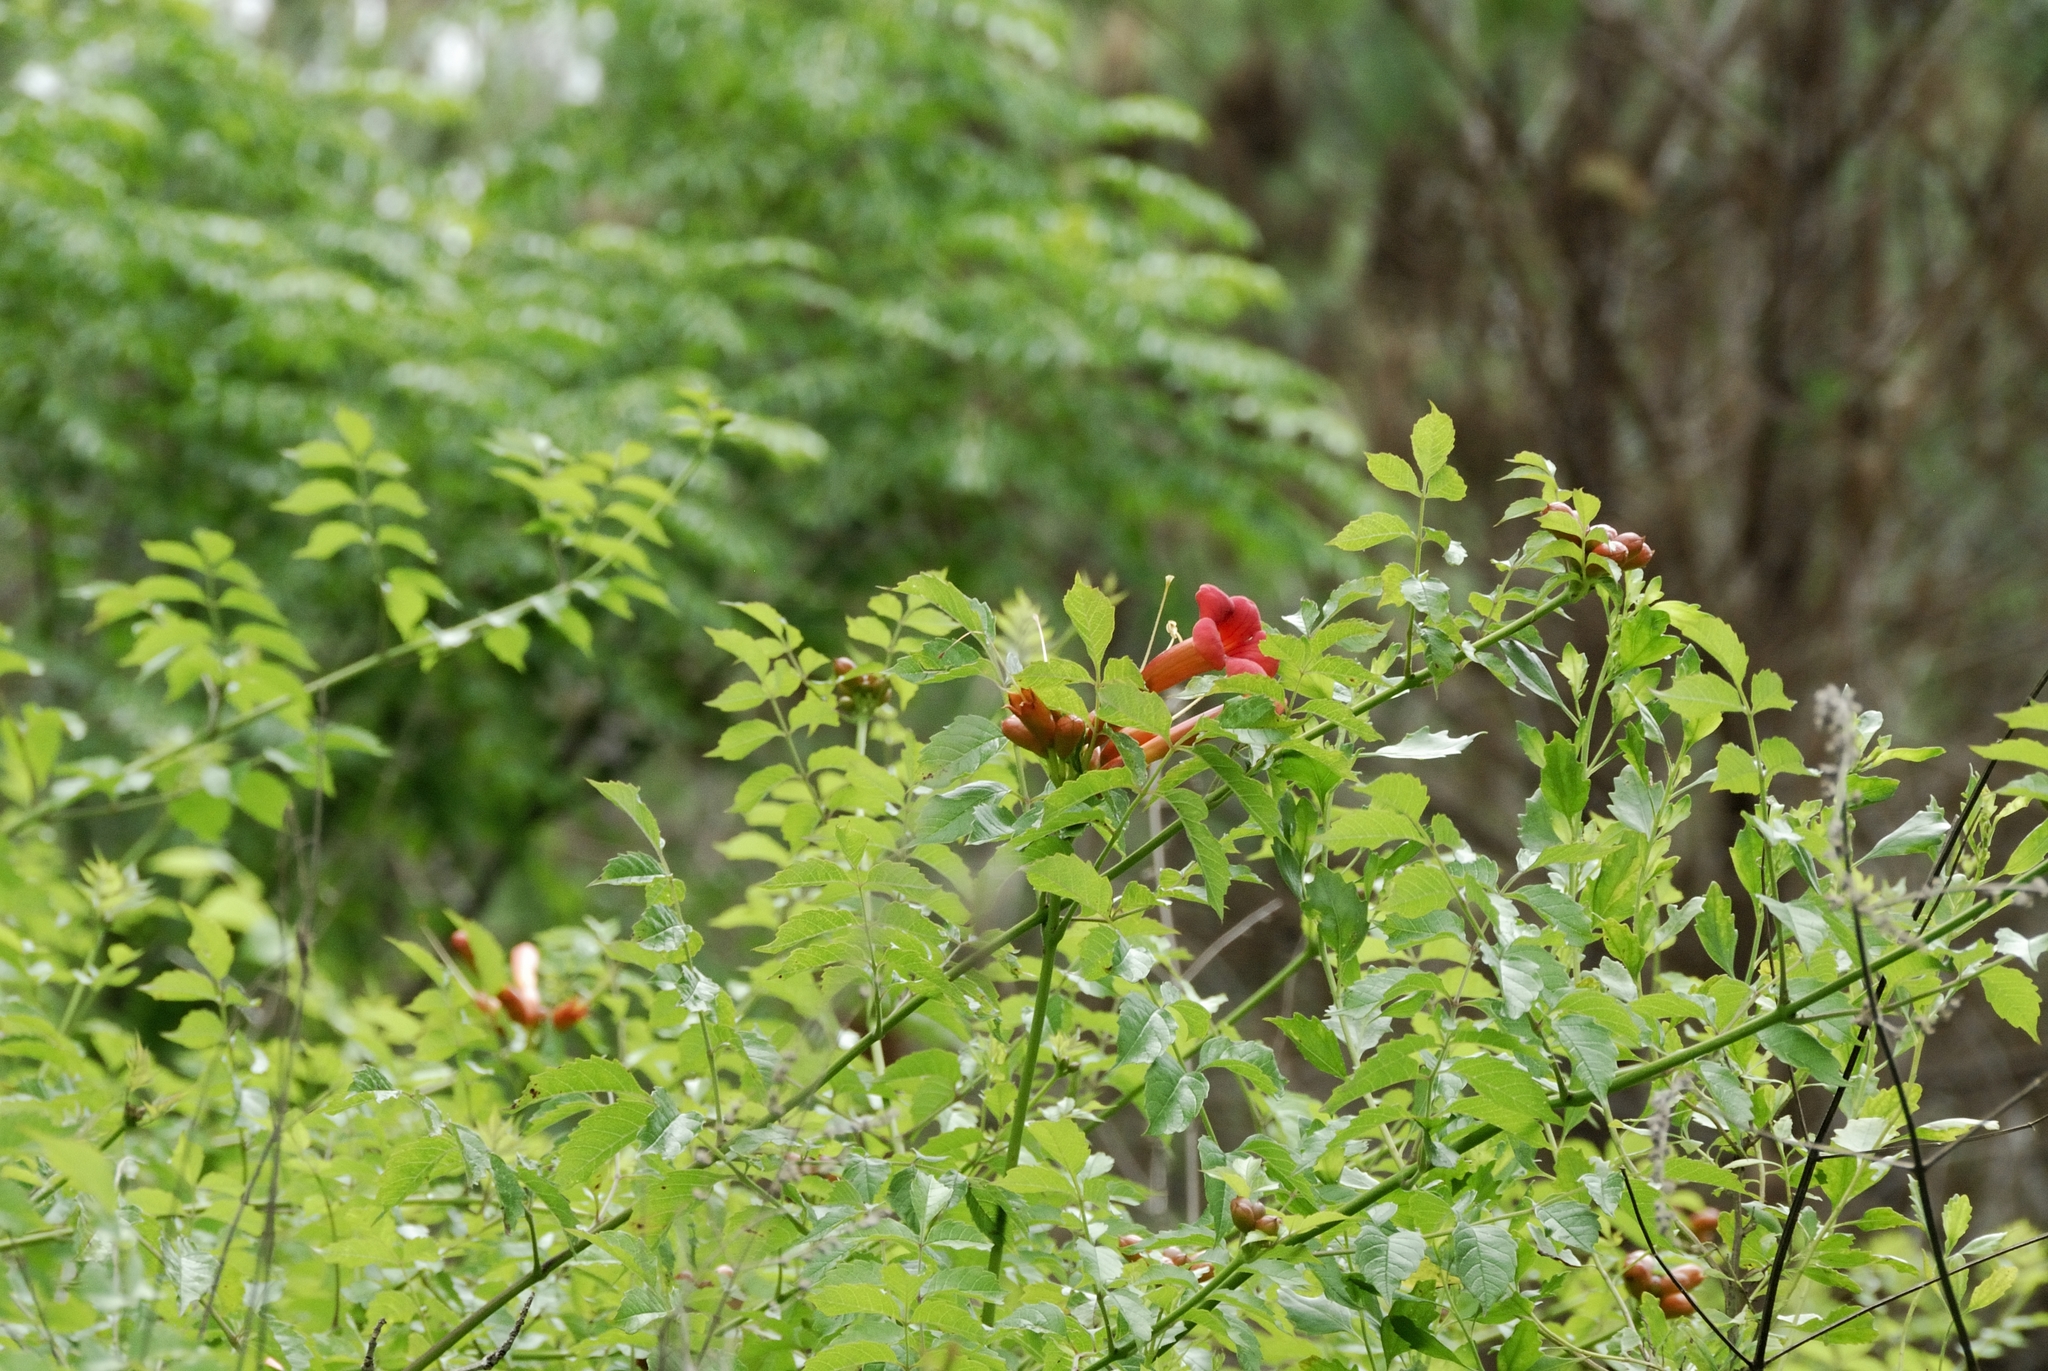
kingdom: Plantae
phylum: Tracheophyta
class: Magnoliopsida
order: Lamiales
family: Bignoniaceae
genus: Campsis
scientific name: Campsis radicans
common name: Trumpet-creeper
